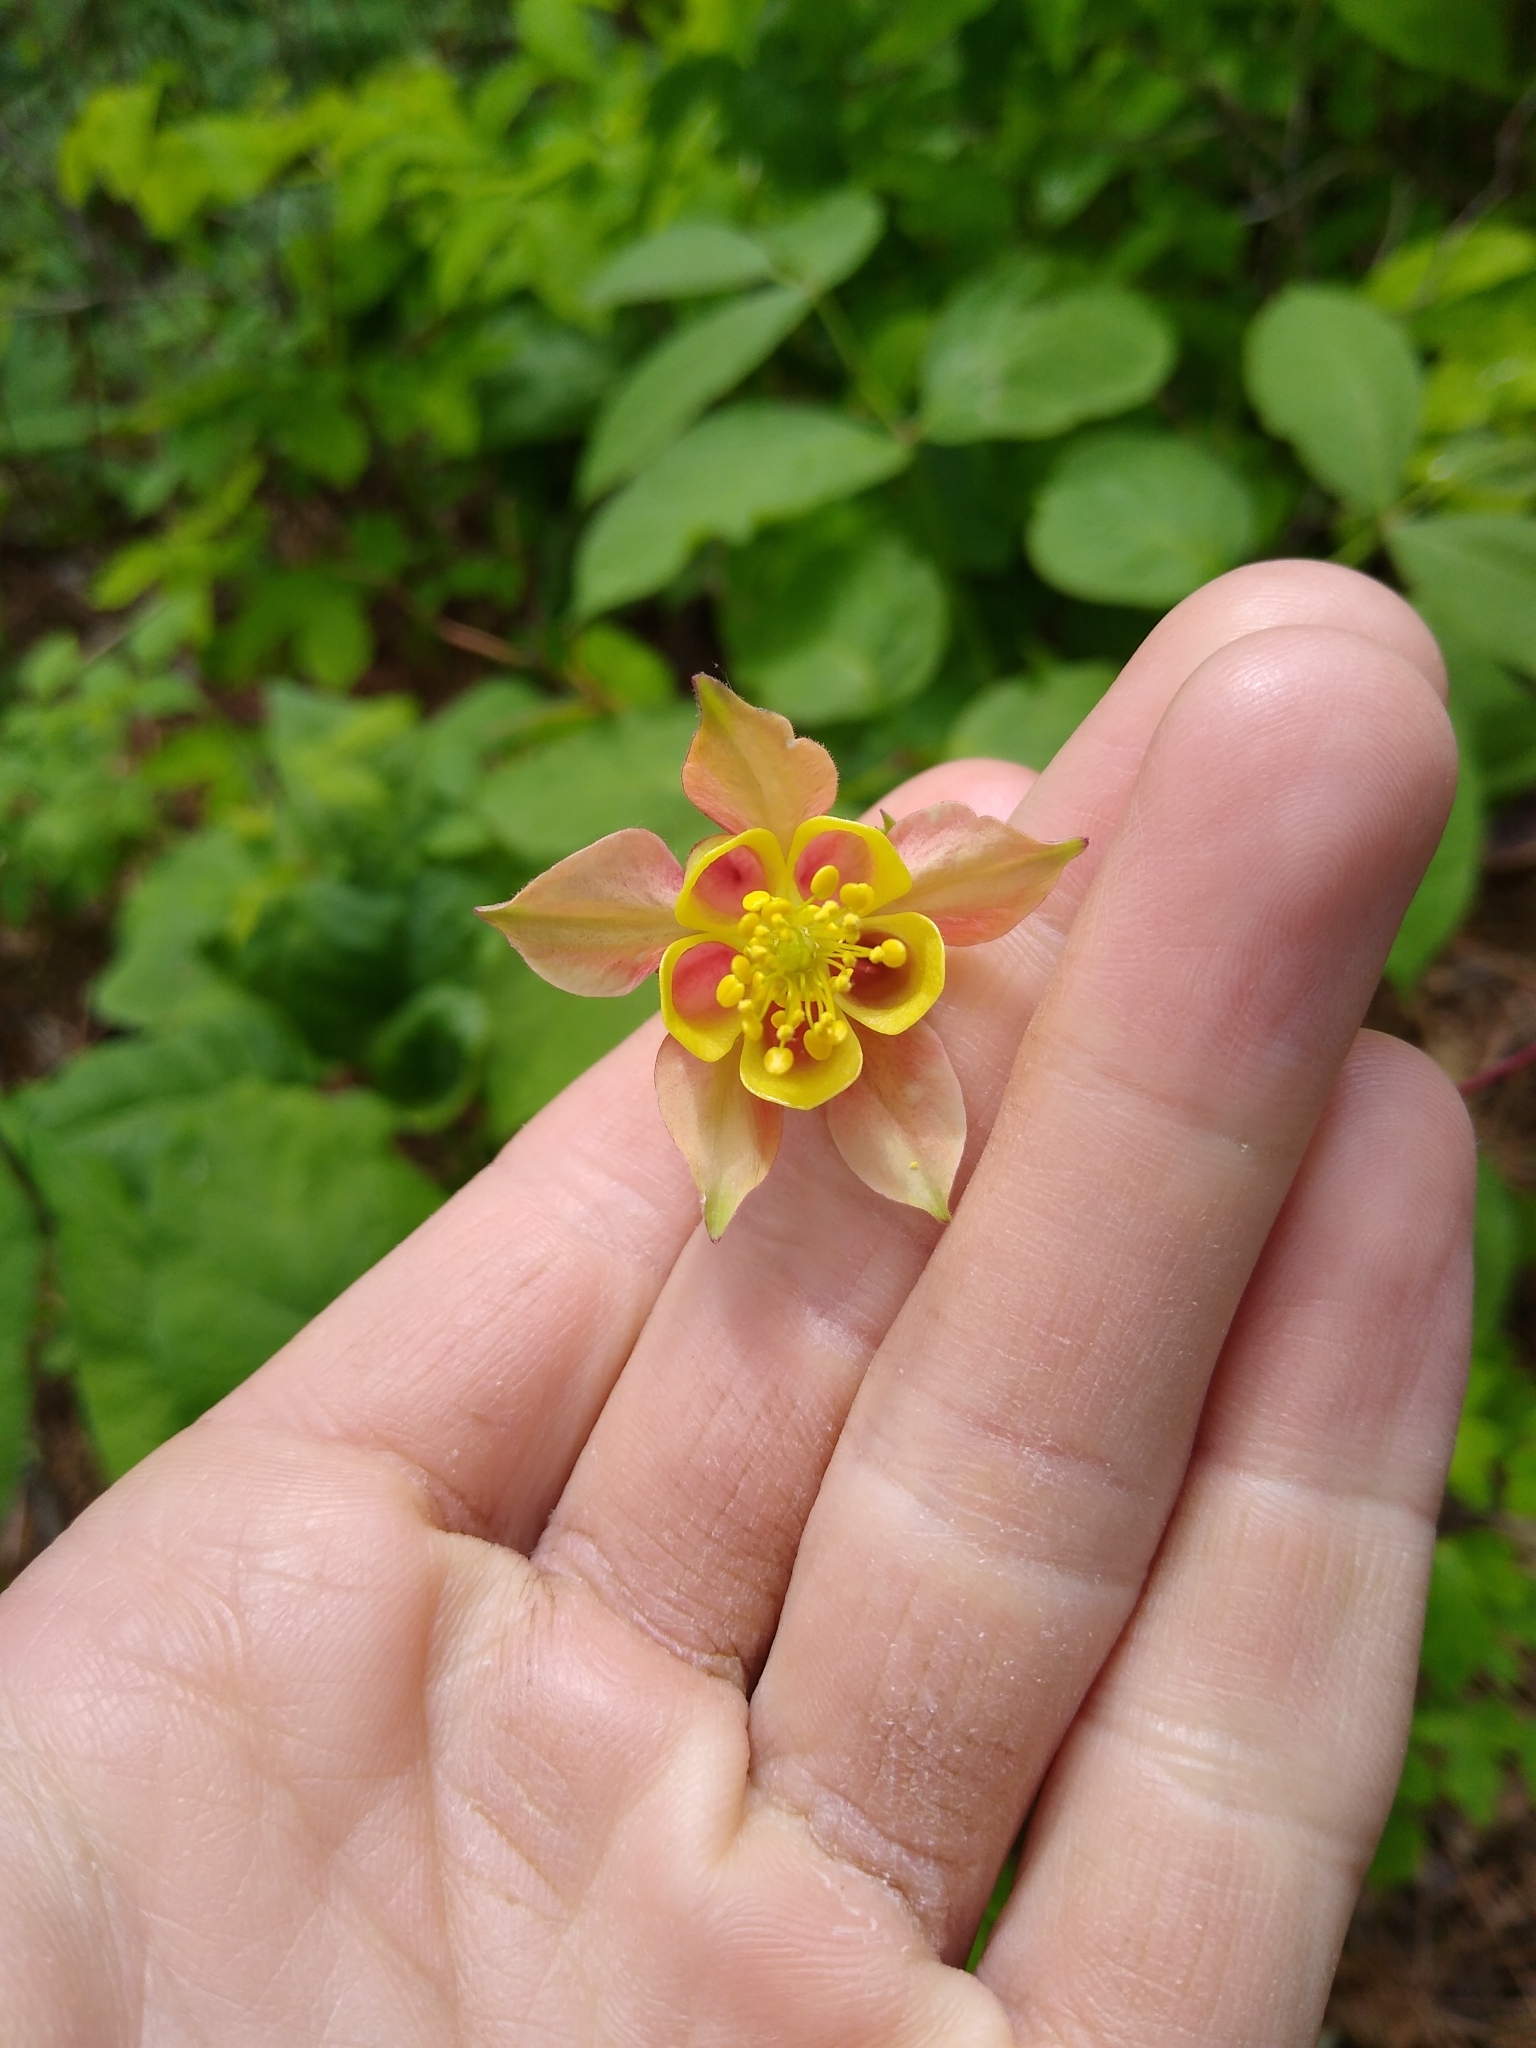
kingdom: Plantae
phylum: Tracheophyta
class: Magnoliopsida
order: Ranunculales
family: Ranunculaceae
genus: Aquilegia
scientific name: Aquilegia canadensis
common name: American columbine
